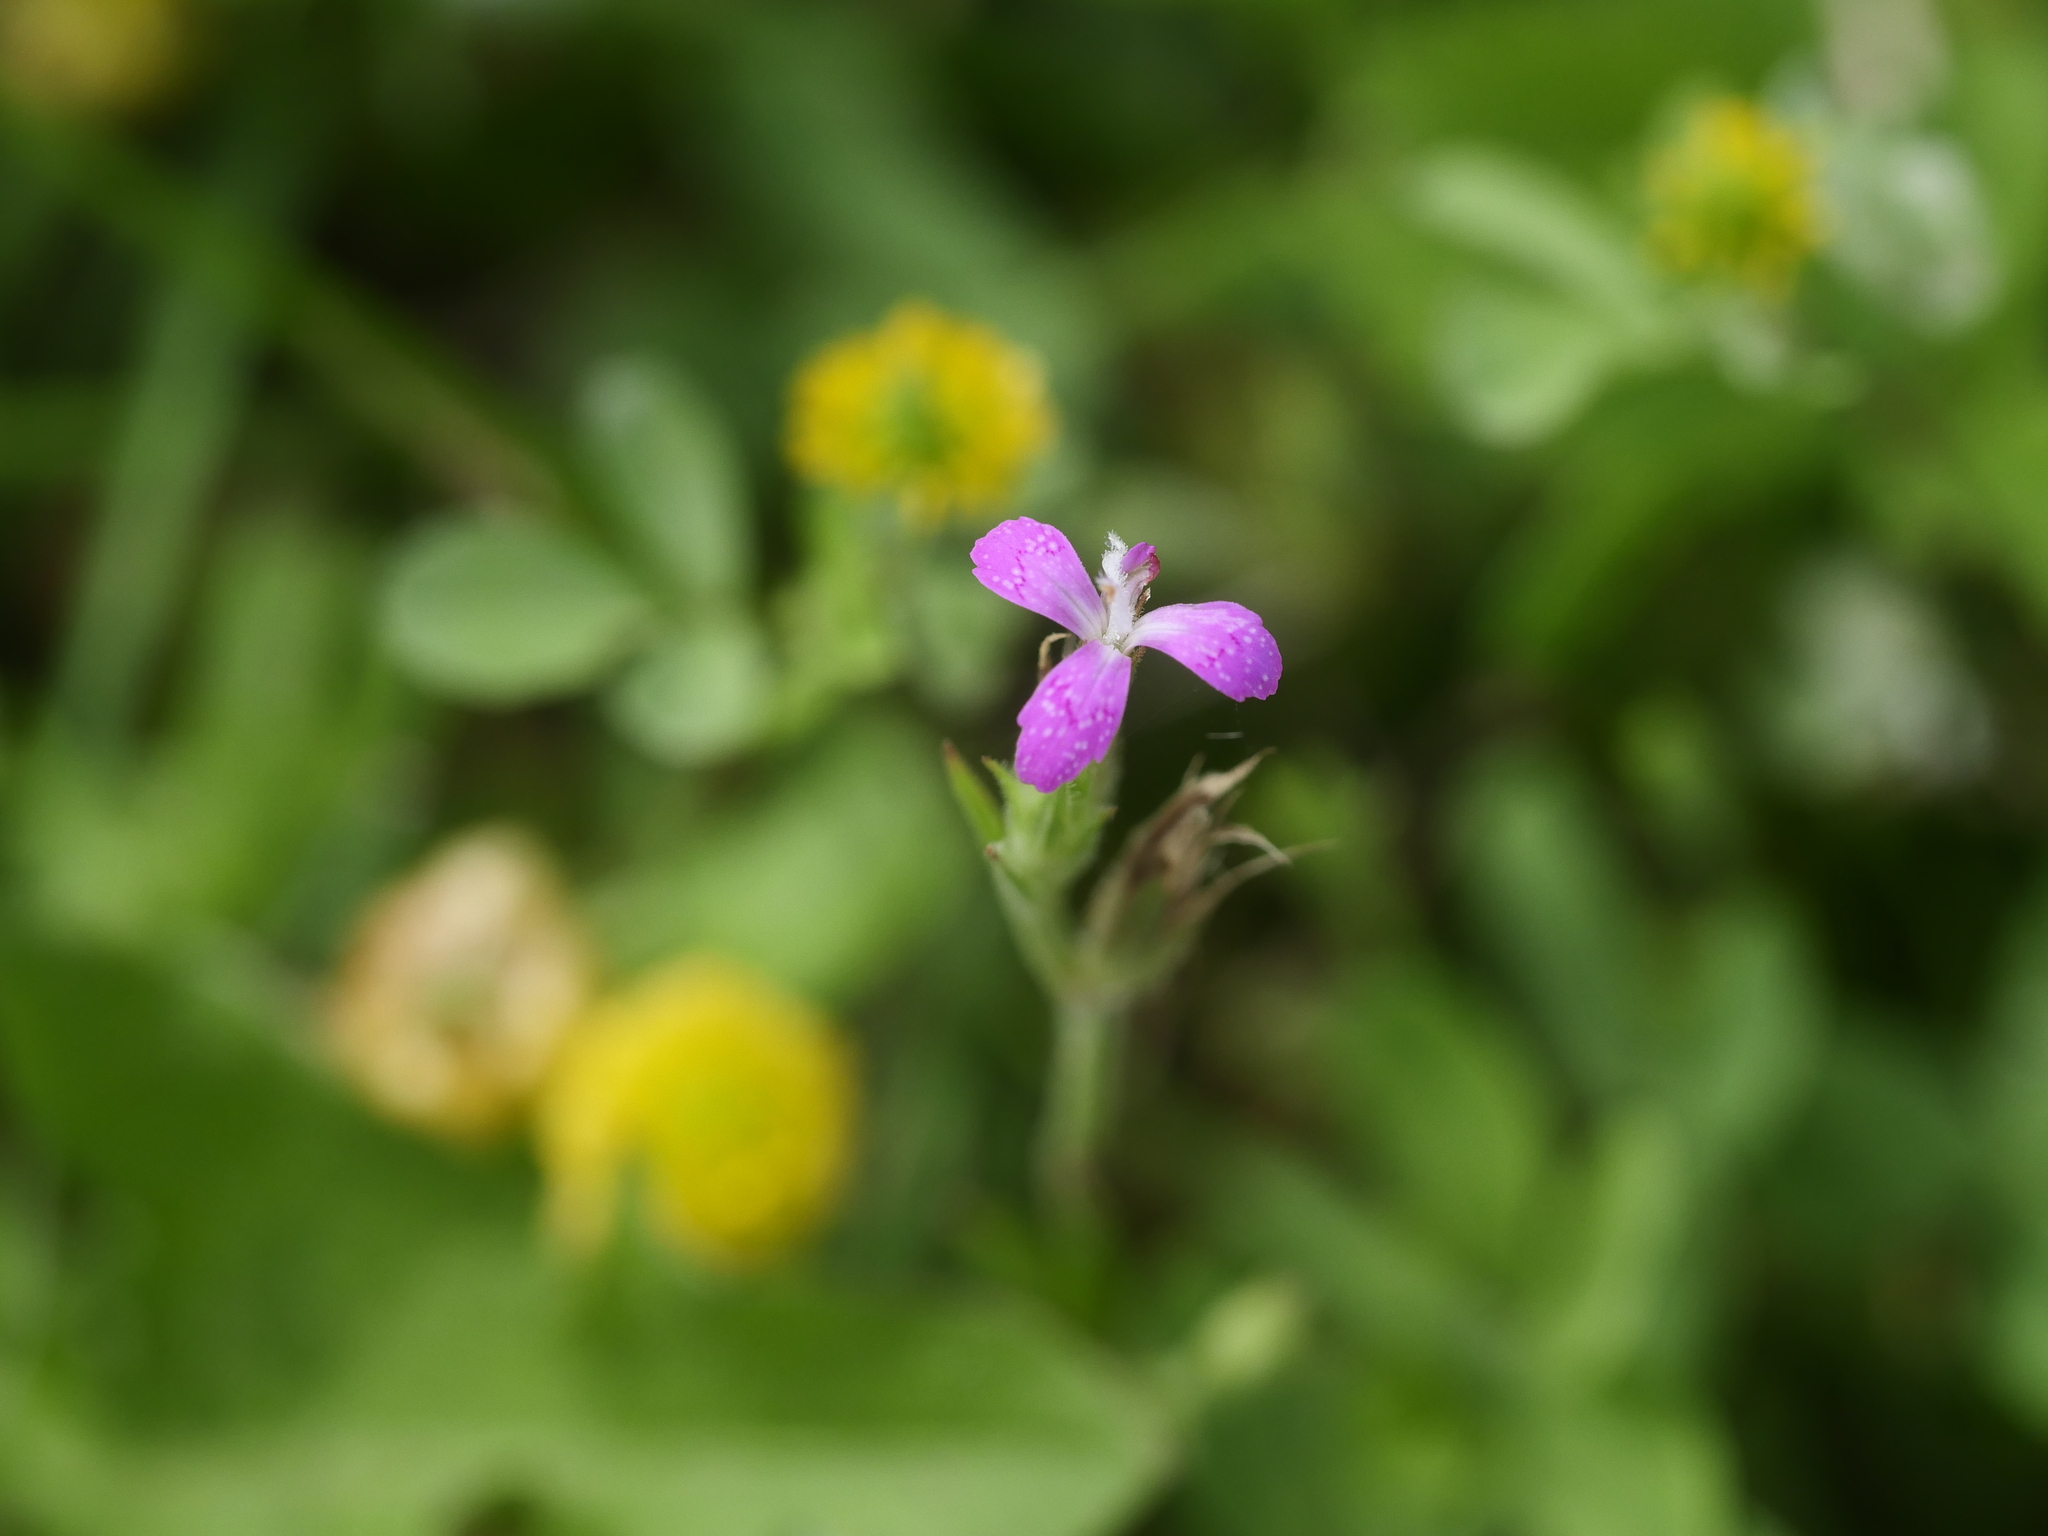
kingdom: Plantae
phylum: Tracheophyta
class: Magnoliopsida
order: Caryophyllales
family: Caryophyllaceae
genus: Dianthus
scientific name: Dianthus armeria
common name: Deptford pink
